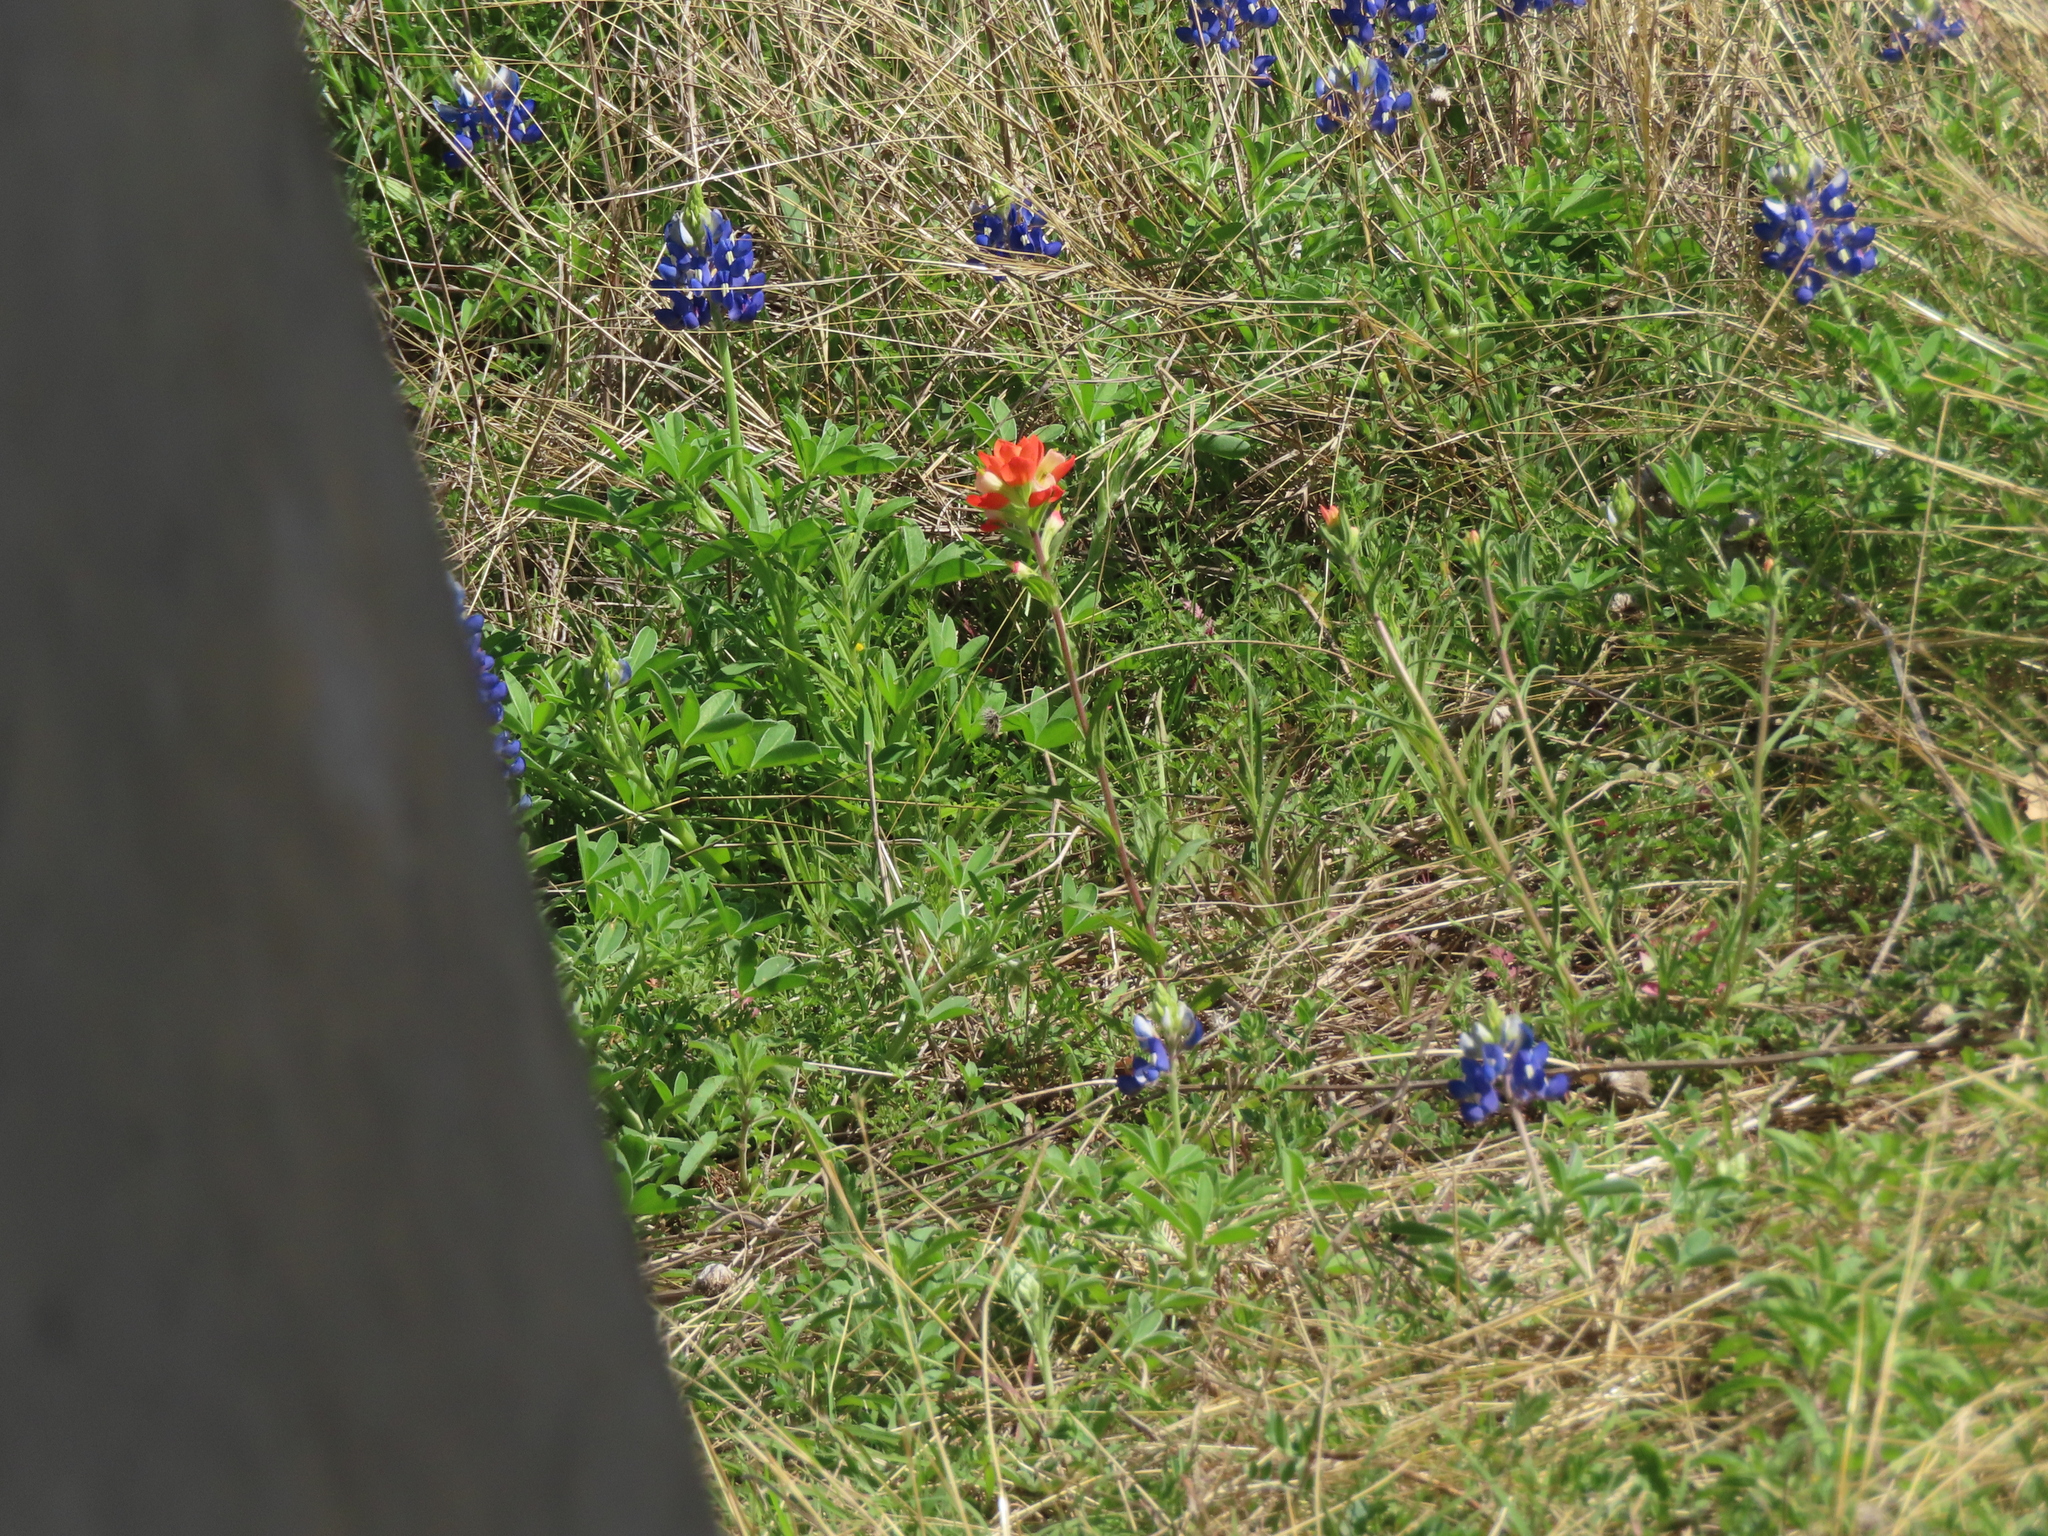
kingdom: Plantae
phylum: Tracheophyta
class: Magnoliopsida
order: Lamiales
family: Orobanchaceae
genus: Castilleja
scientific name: Castilleja indivisa
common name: Texas paintbrush
